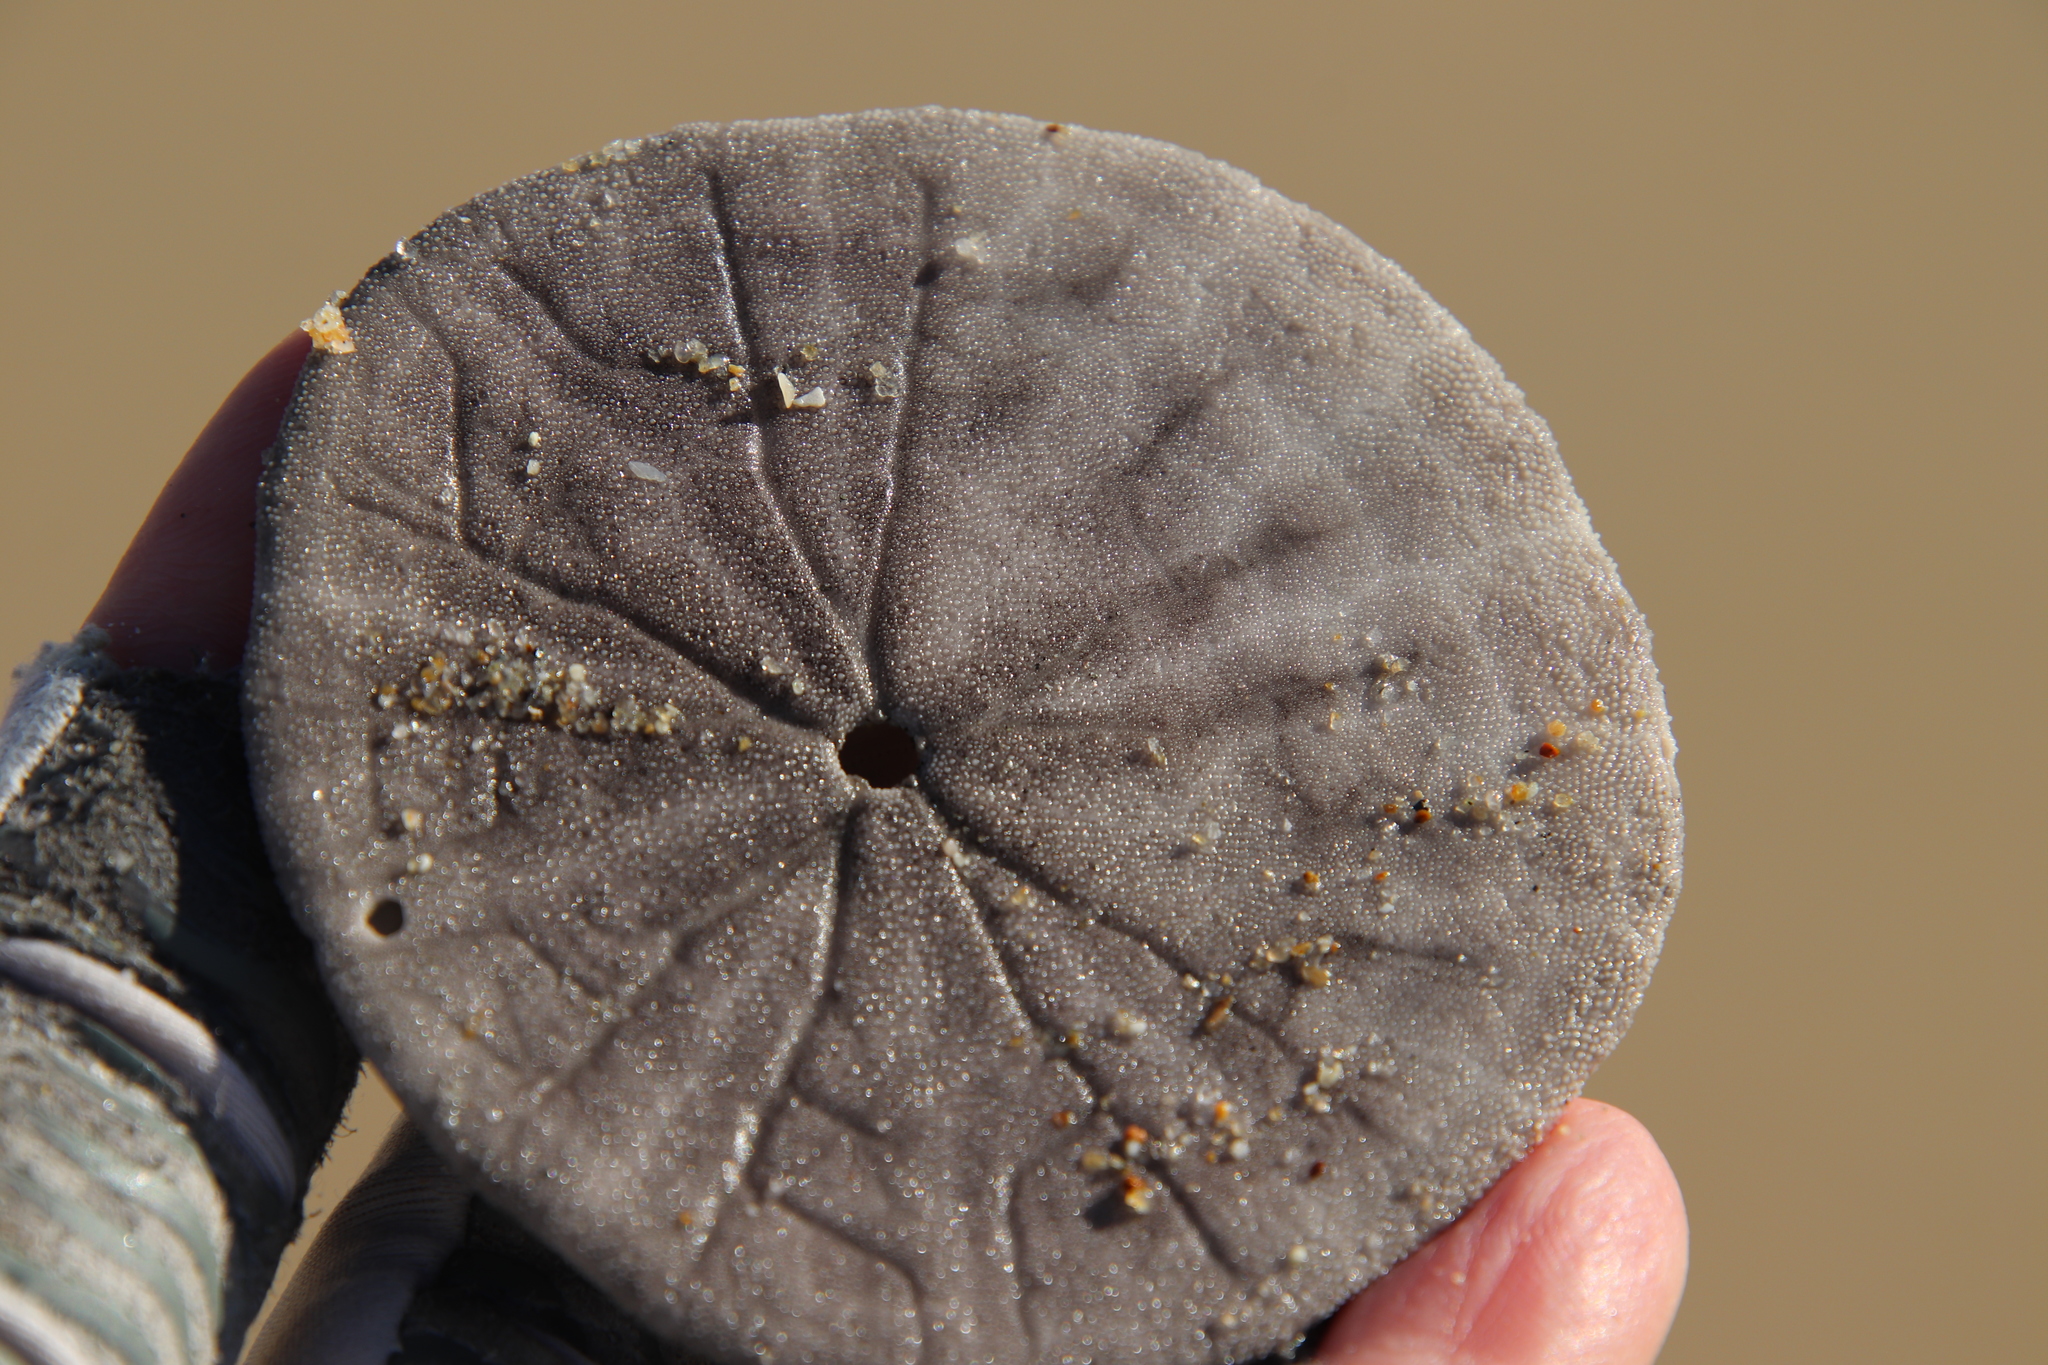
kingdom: Animalia
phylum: Echinodermata
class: Echinoidea
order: Echinolampadacea
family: Dendrasteridae
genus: Dendraster
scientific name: Dendraster excentricus
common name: Eccentric sand dollar sea urchin
